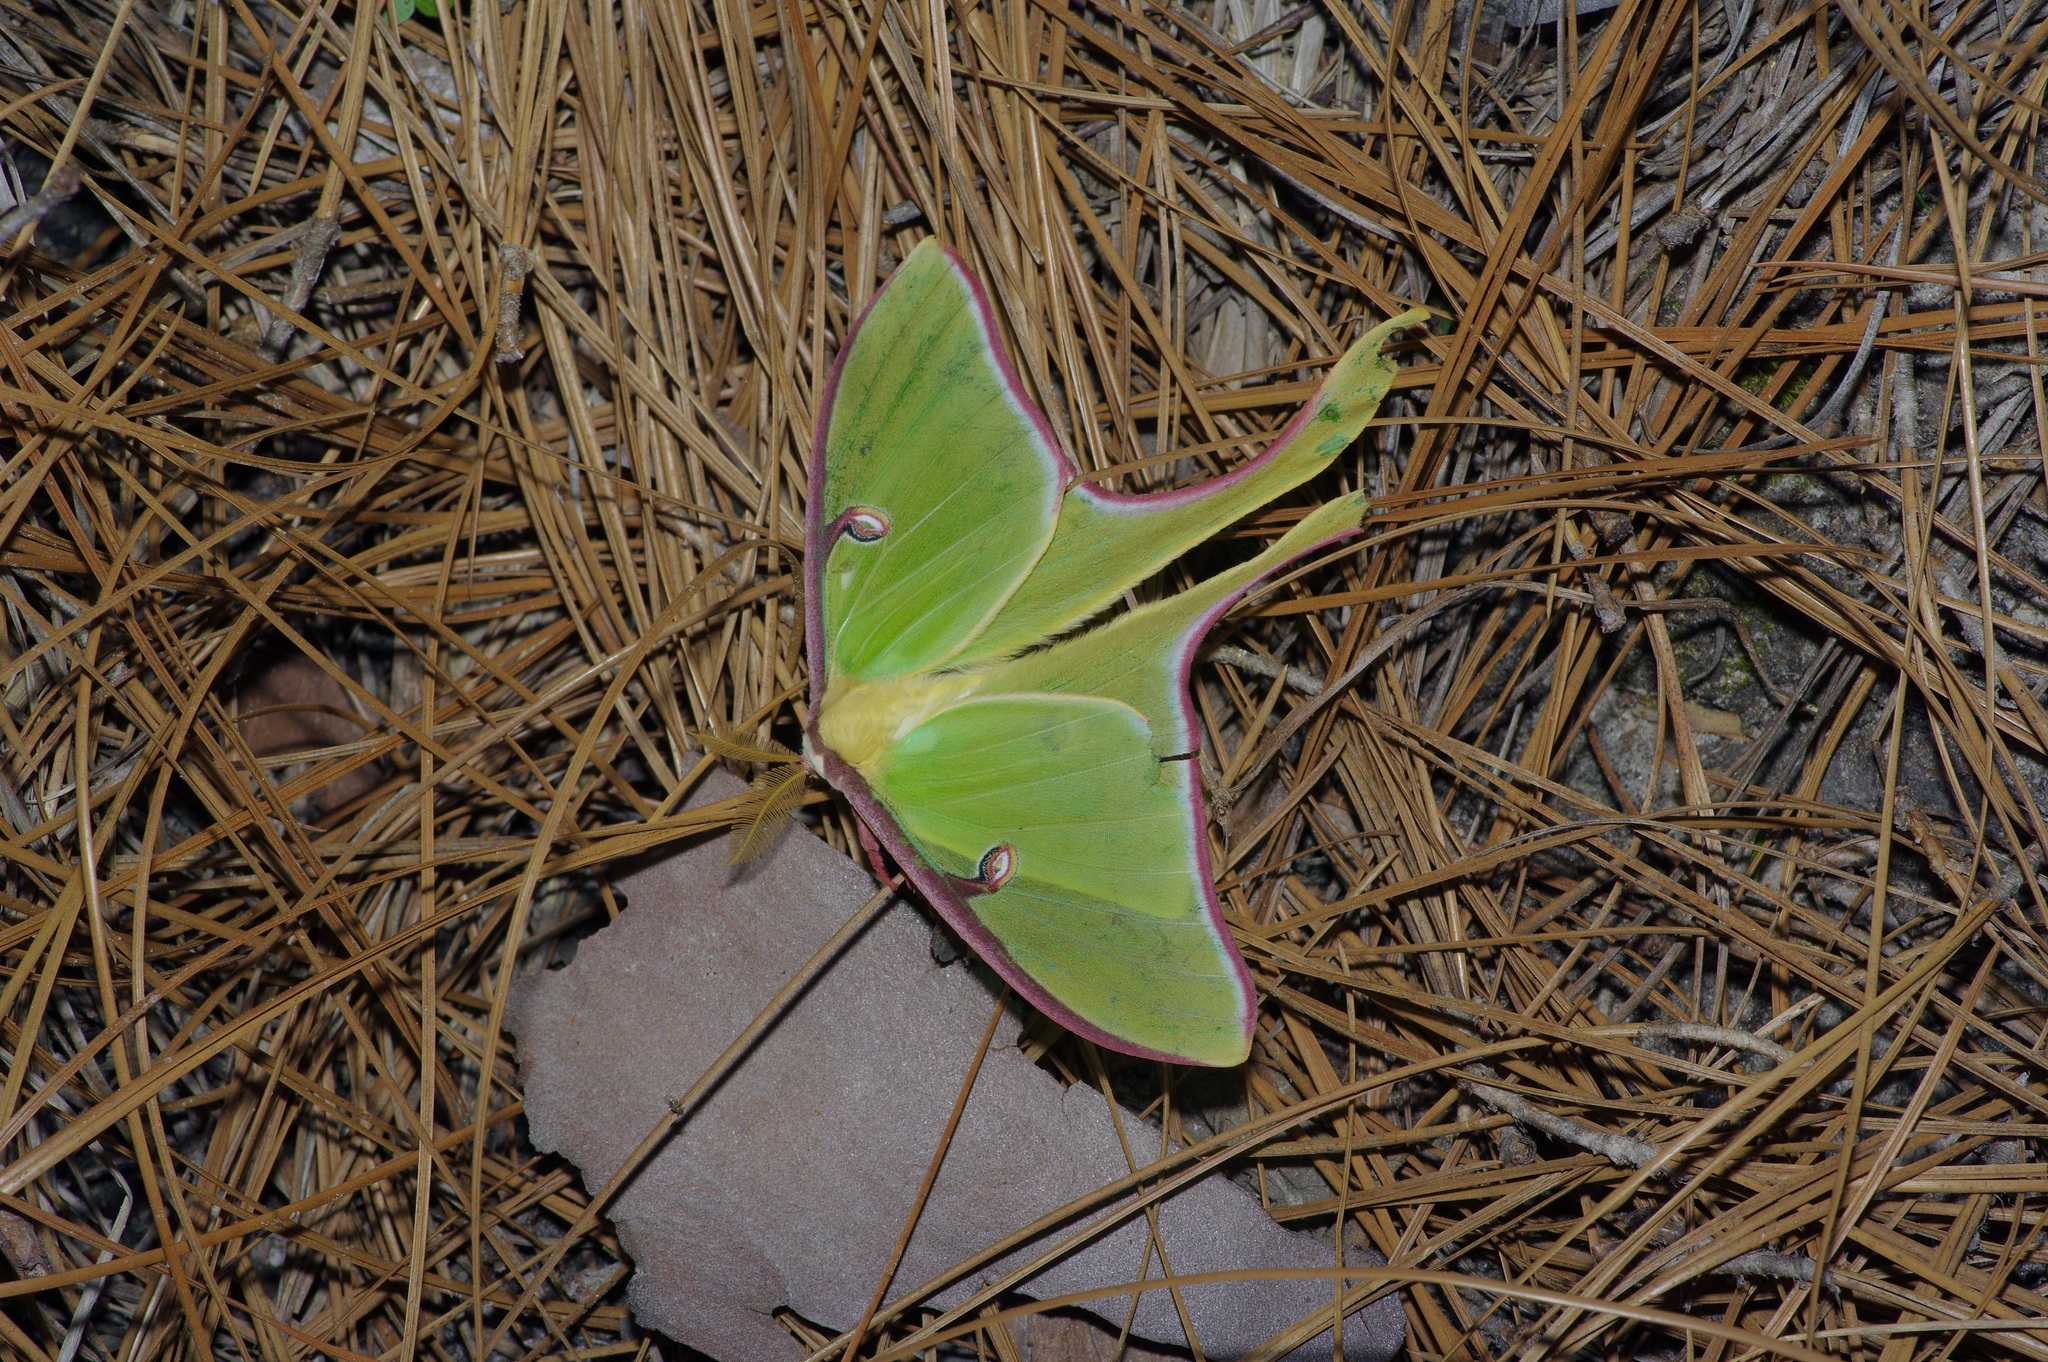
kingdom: Animalia
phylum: Arthropoda
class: Insecta
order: Lepidoptera
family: Saturniidae
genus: Actias
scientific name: Actias luna
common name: Luna moth
